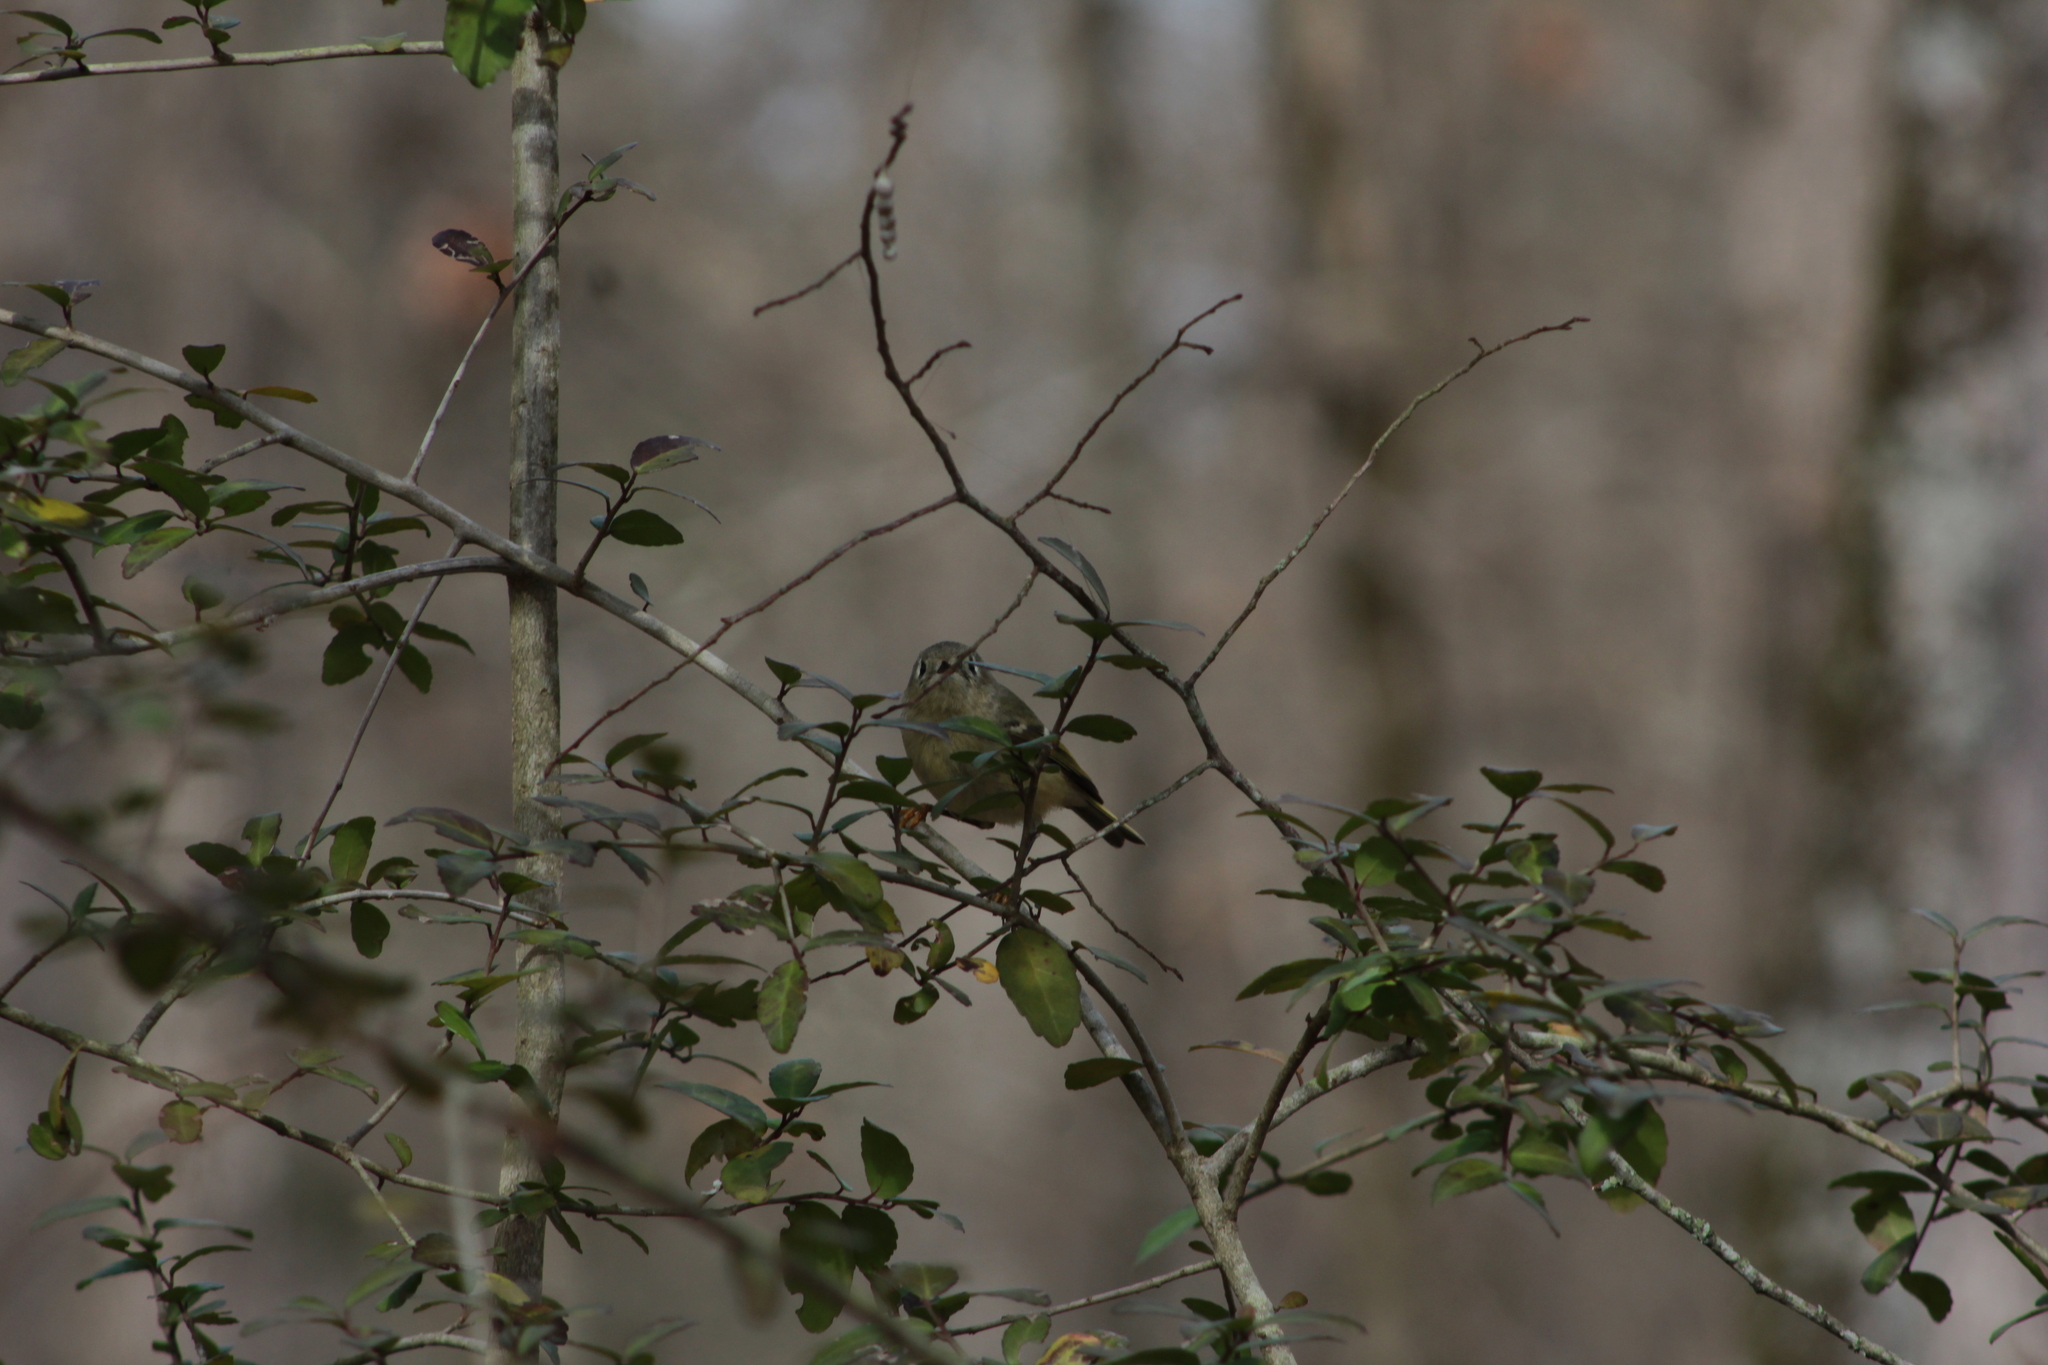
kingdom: Animalia
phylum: Chordata
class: Aves
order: Passeriformes
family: Regulidae
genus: Regulus
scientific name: Regulus calendula
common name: Ruby-crowned kinglet
